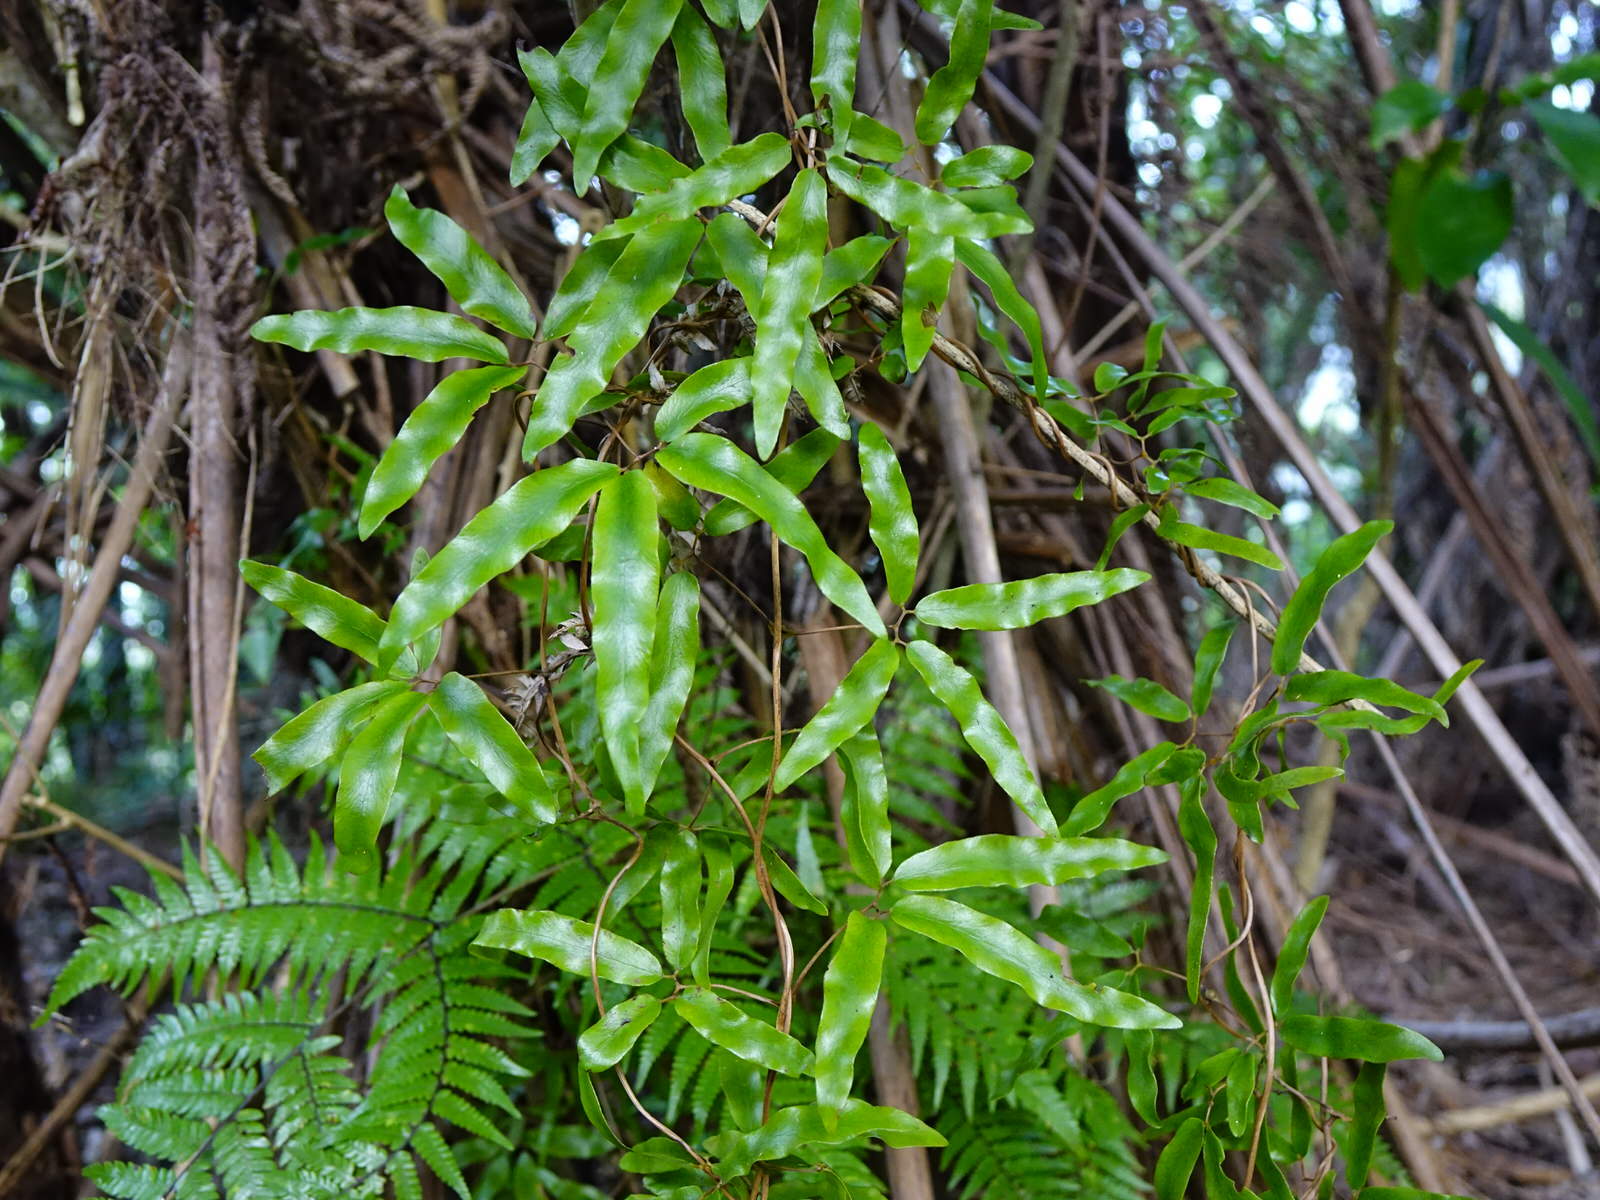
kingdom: Plantae
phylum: Tracheophyta
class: Polypodiopsida
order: Schizaeales
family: Lygodiaceae
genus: Lygodium
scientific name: Lygodium articulatum
